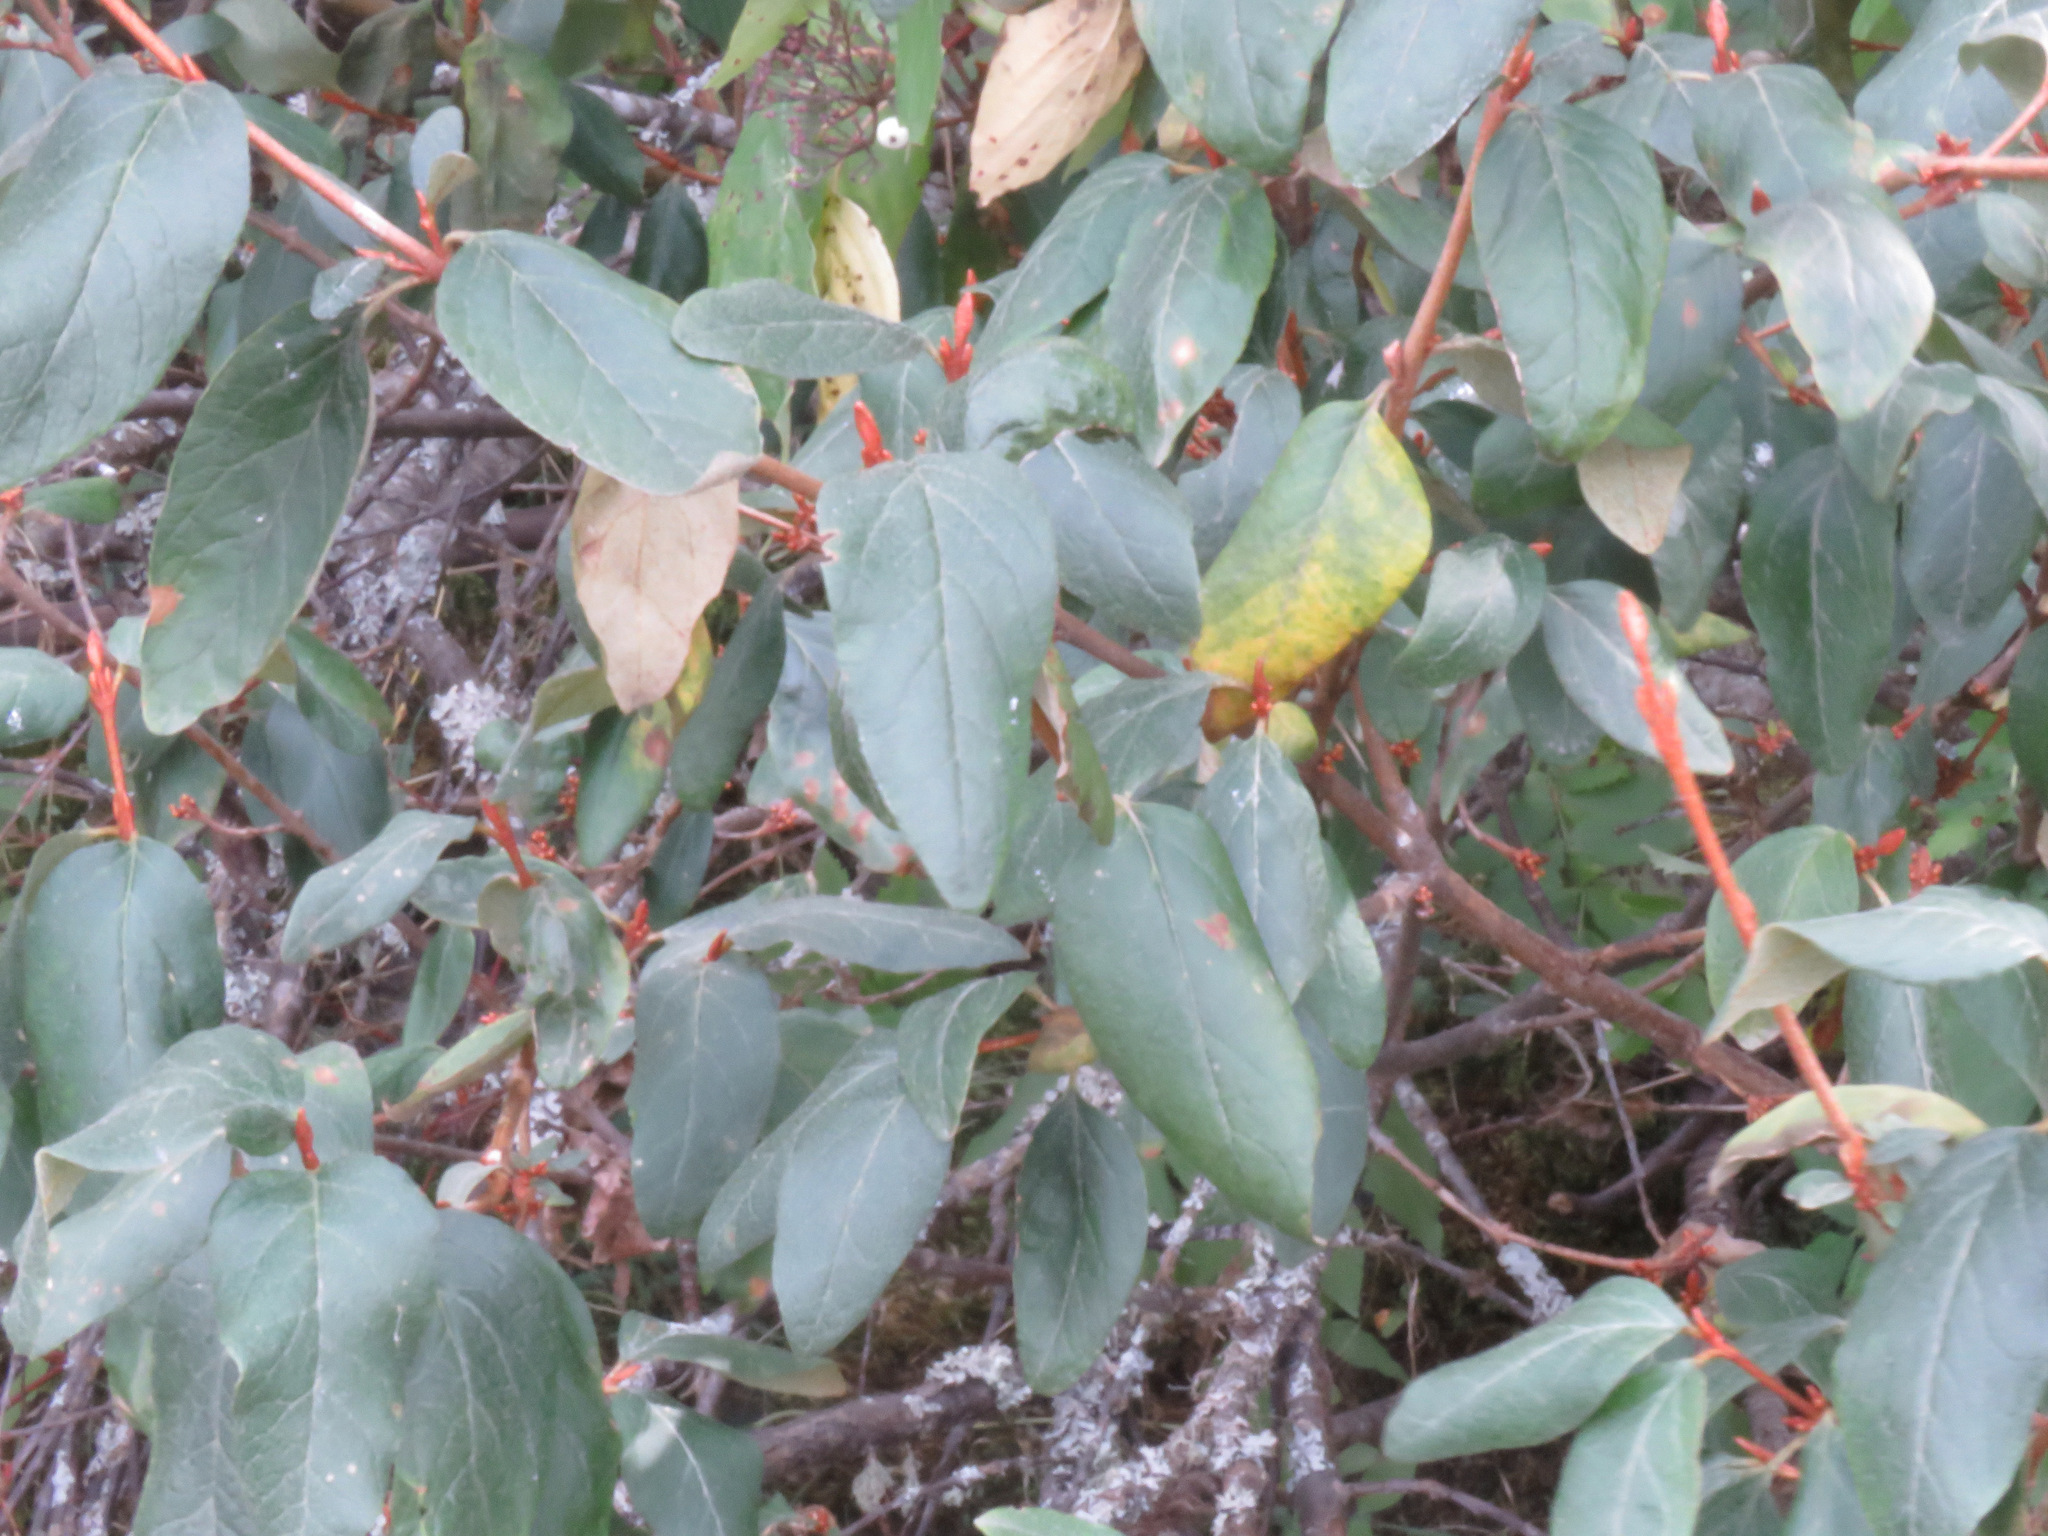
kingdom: Plantae
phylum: Tracheophyta
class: Magnoliopsida
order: Rosales
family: Elaeagnaceae
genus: Shepherdia
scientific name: Shepherdia canadensis
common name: Soapberry
